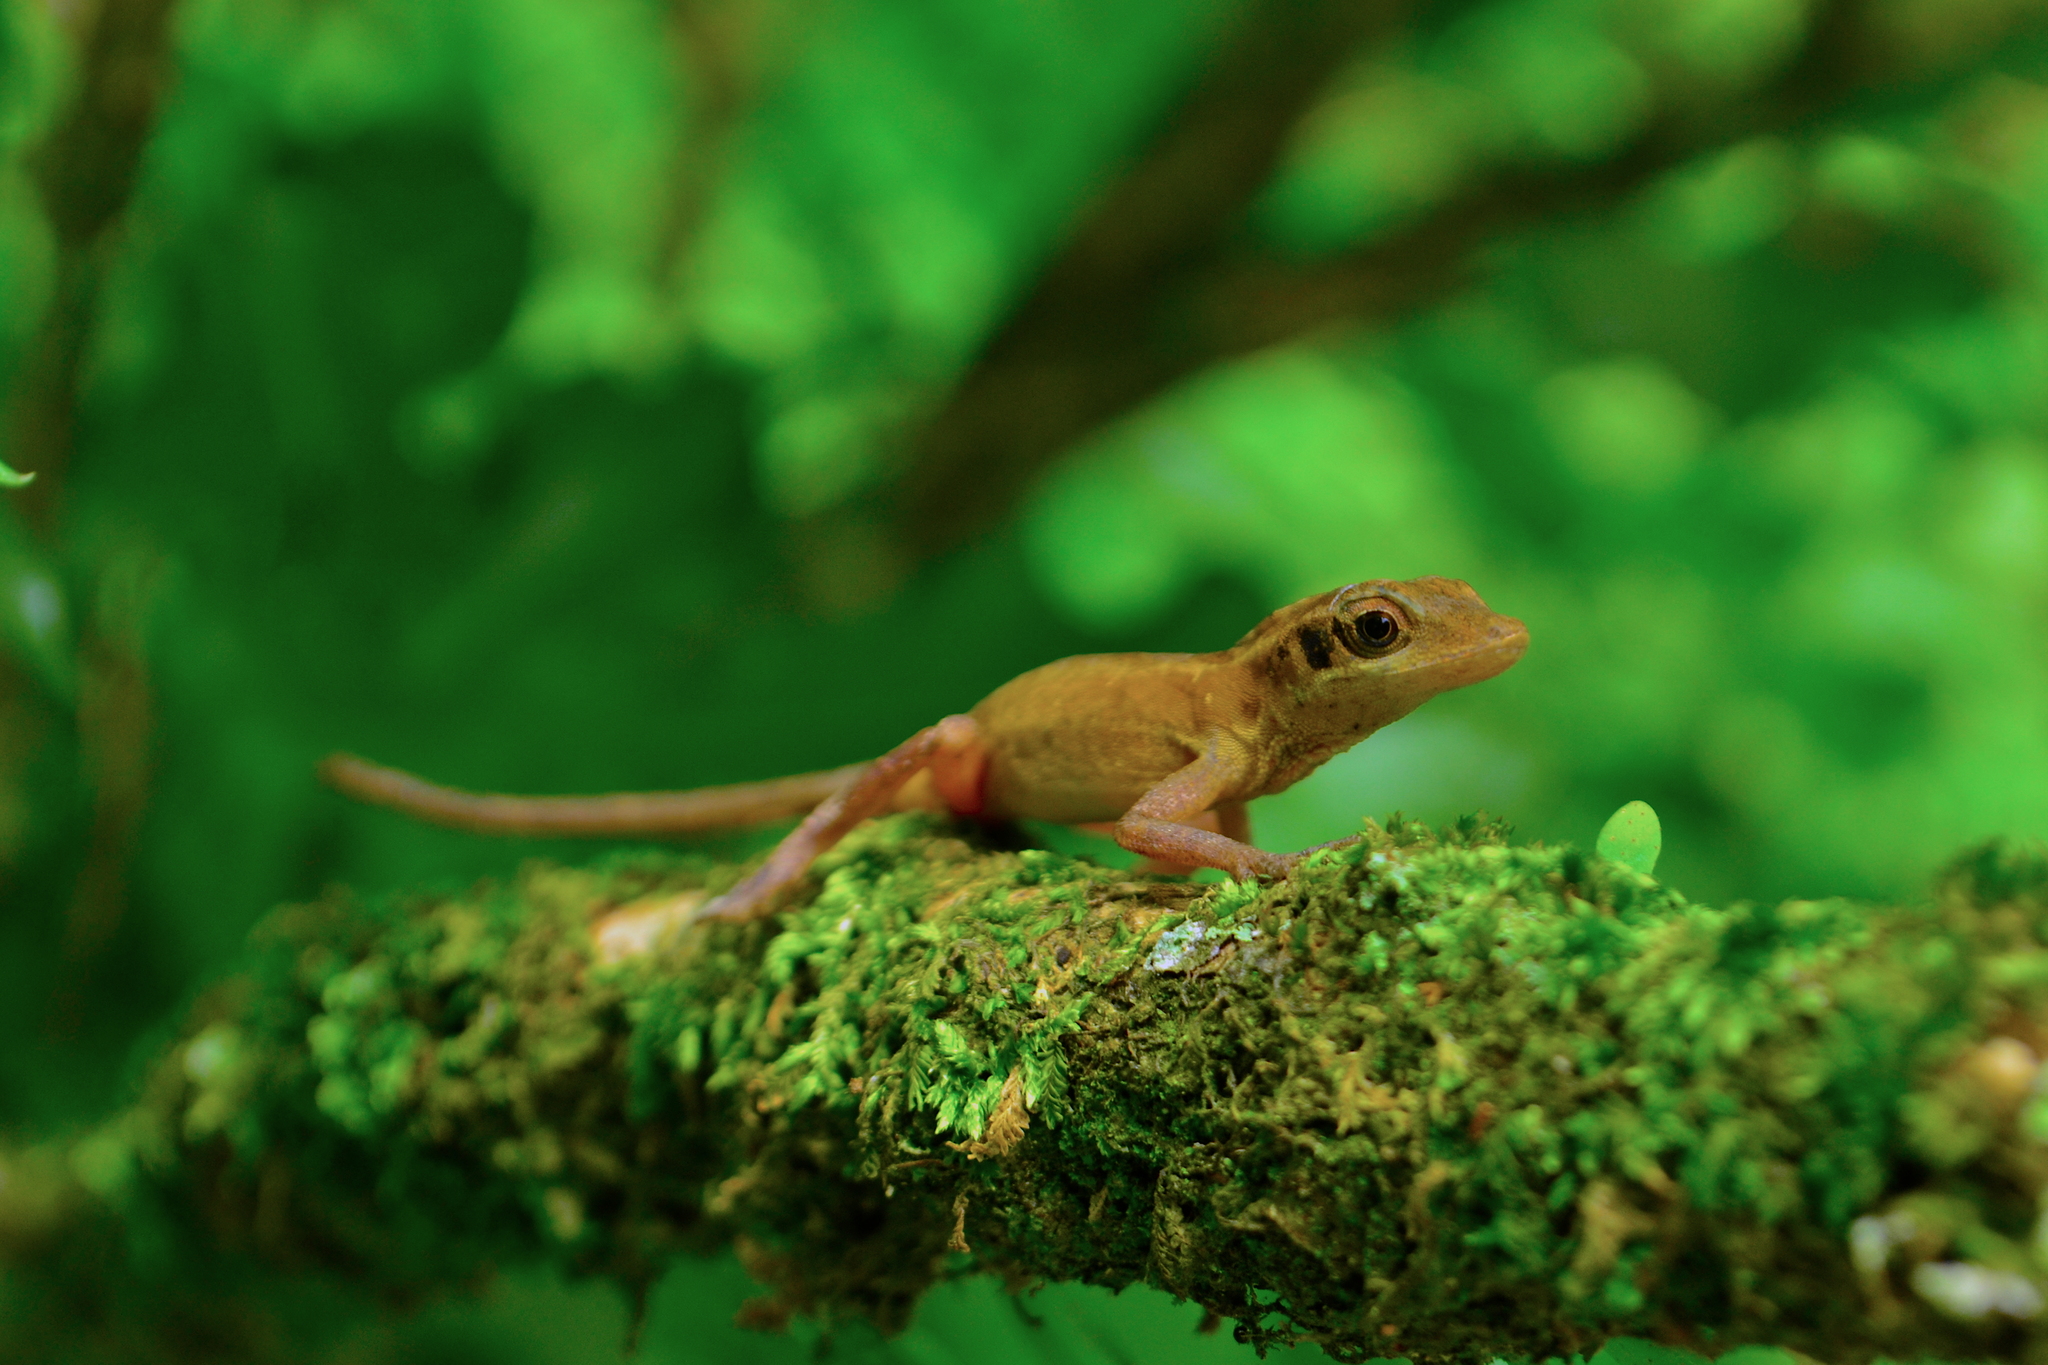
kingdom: Animalia
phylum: Chordata
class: Squamata
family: Dactyloidae
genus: Anolis
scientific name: Anolis dollfusianus
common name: Coffee anole
